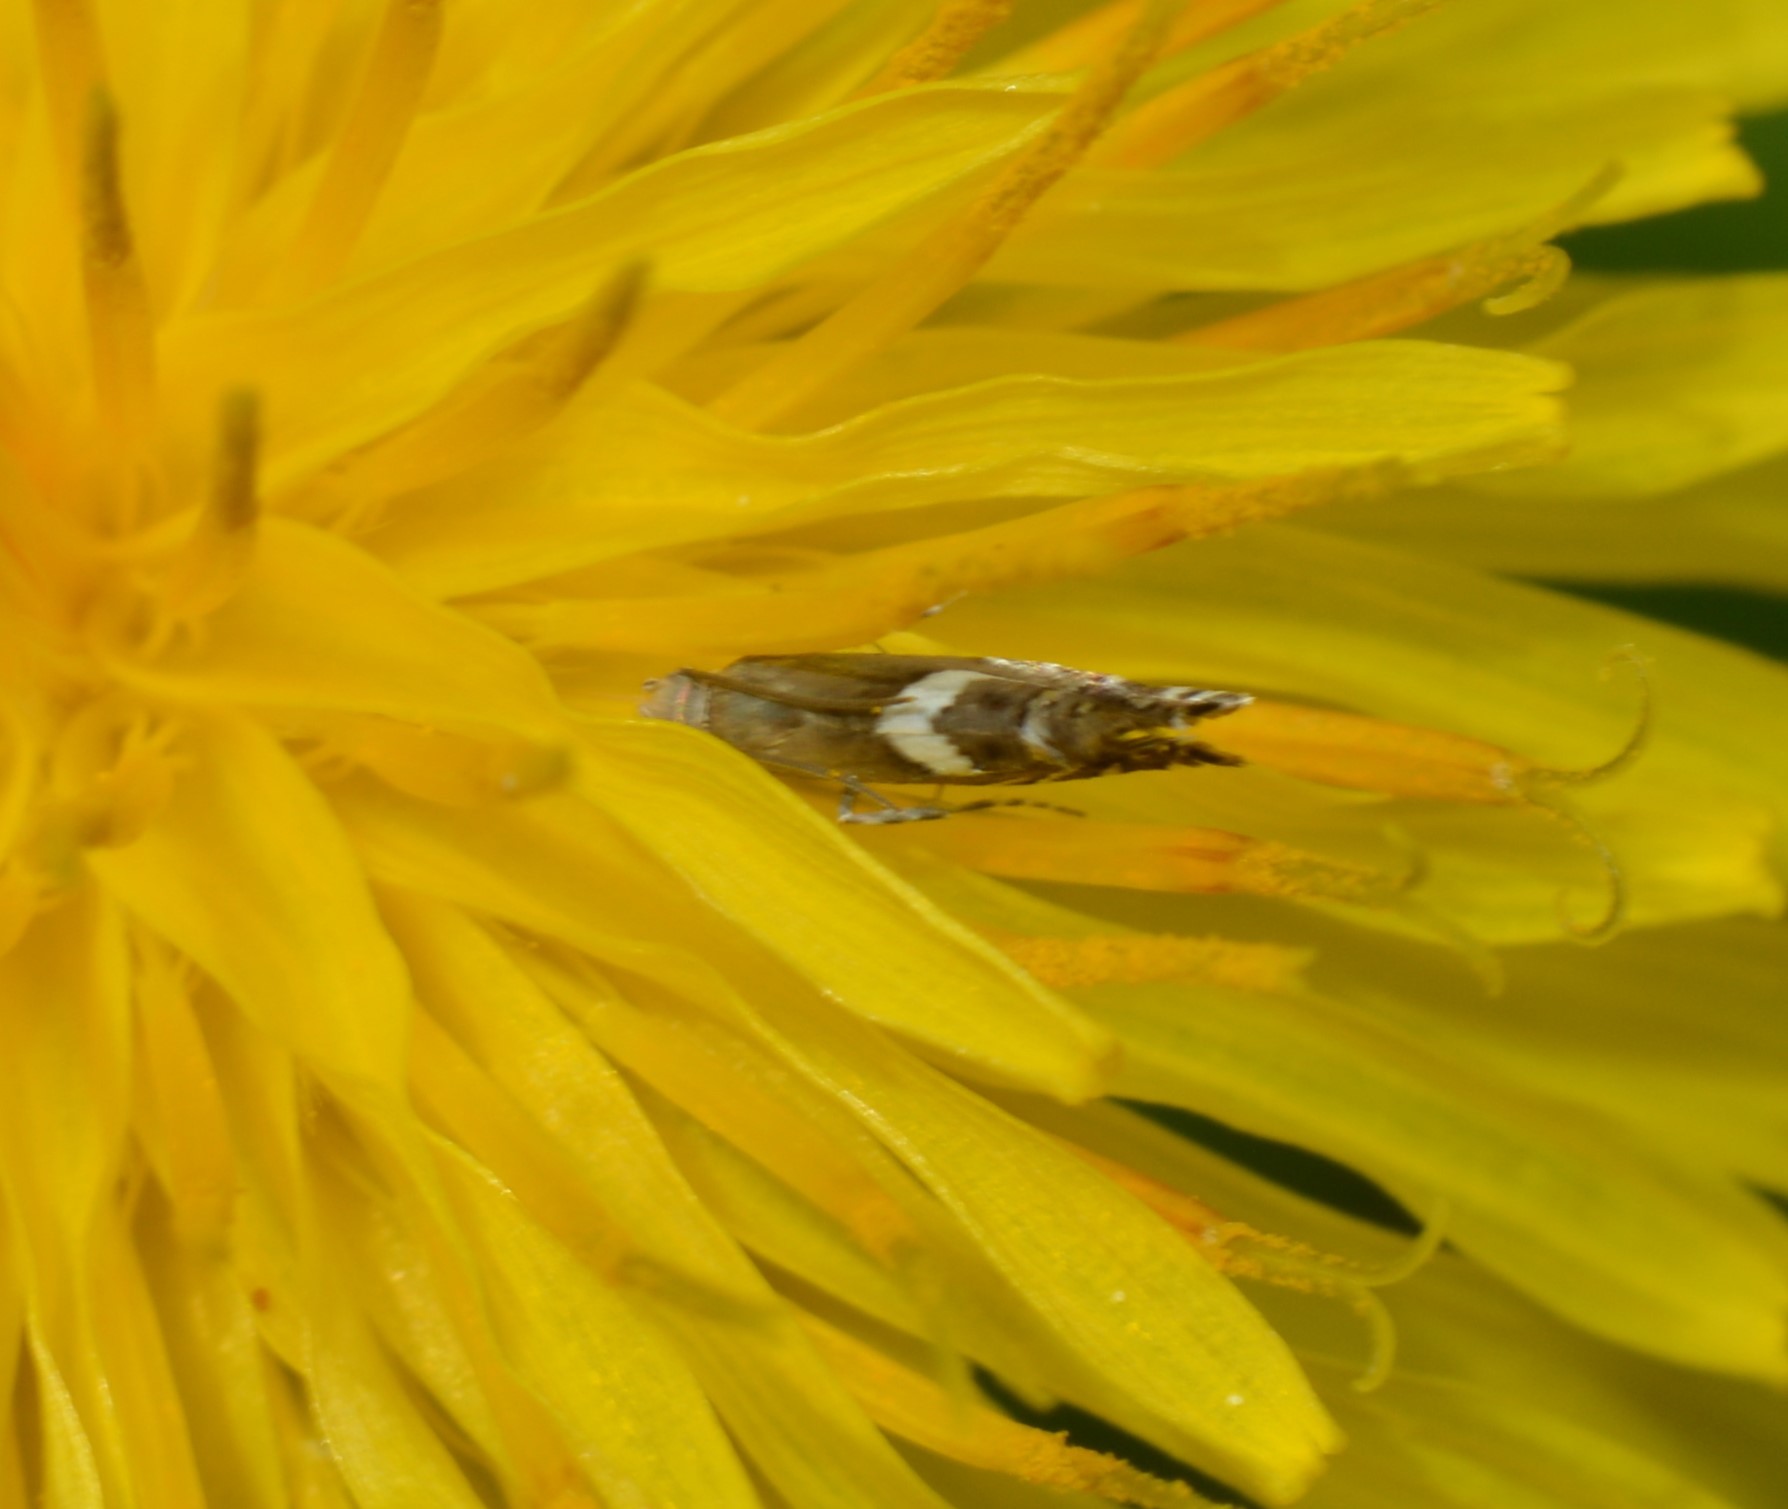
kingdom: Animalia
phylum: Arthropoda
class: Insecta
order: Lepidoptera
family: Glyphipterigidae
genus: Glyphipterix
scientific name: Glyphipterix Diploschizia impigritella
